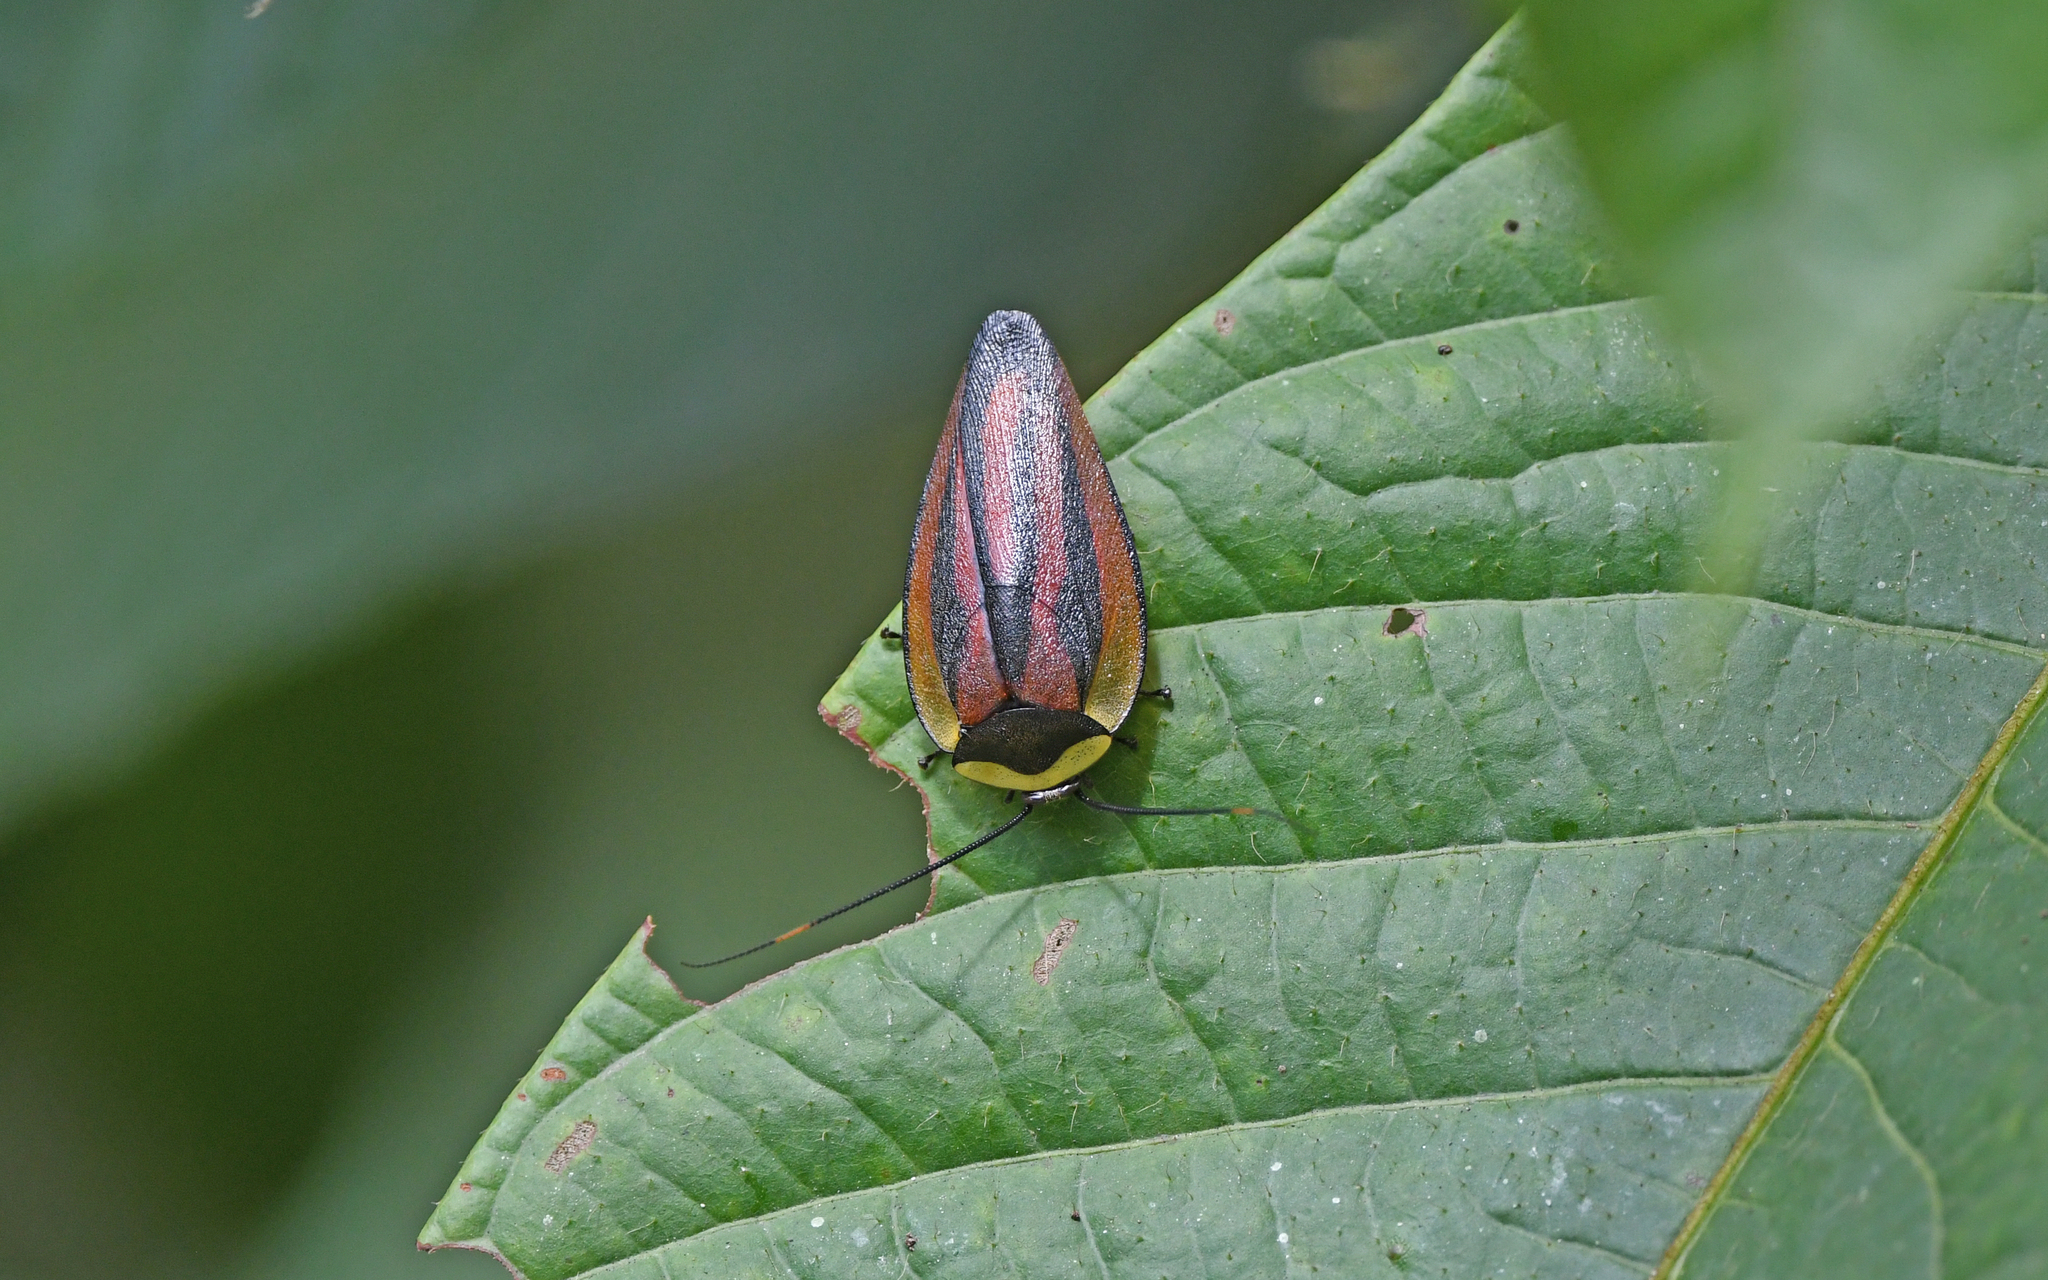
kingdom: Animalia
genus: Rochaina
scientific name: Rochaina peruana
